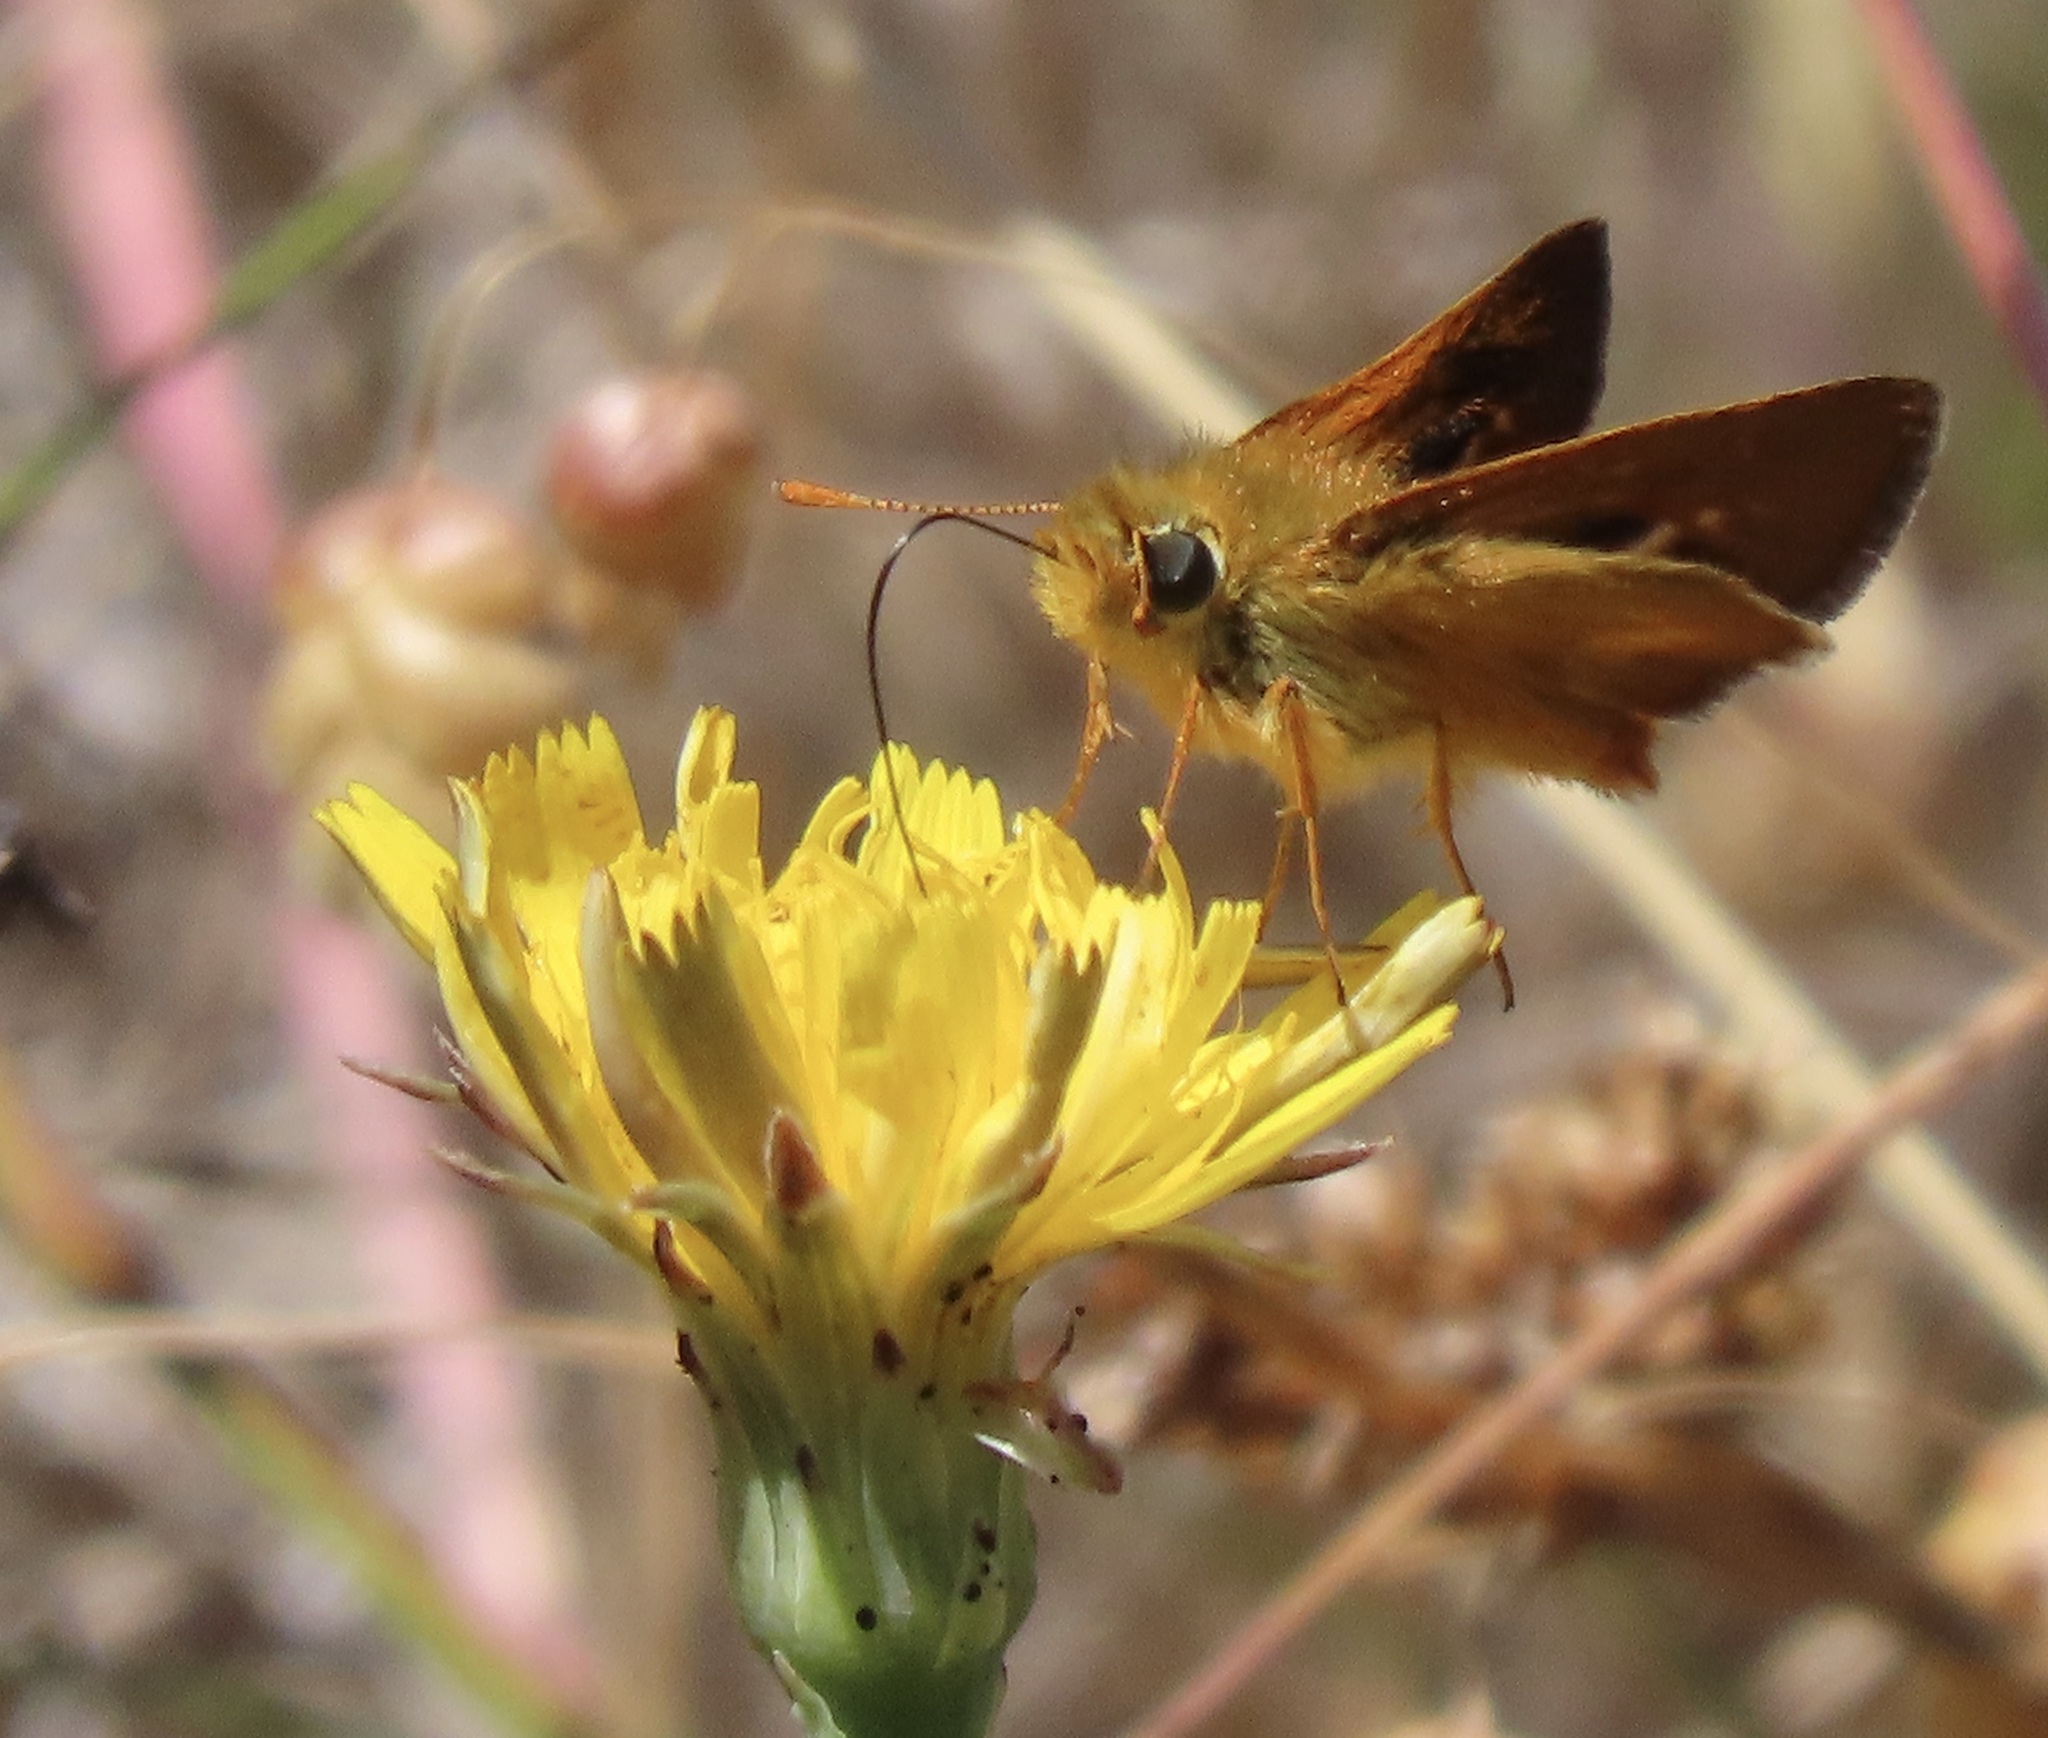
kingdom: Animalia
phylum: Arthropoda
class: Insecta
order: Lepidoptera
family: Hesperiidae
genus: Ochlodes
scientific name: Ochlodes agricola
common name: Rural skipper
